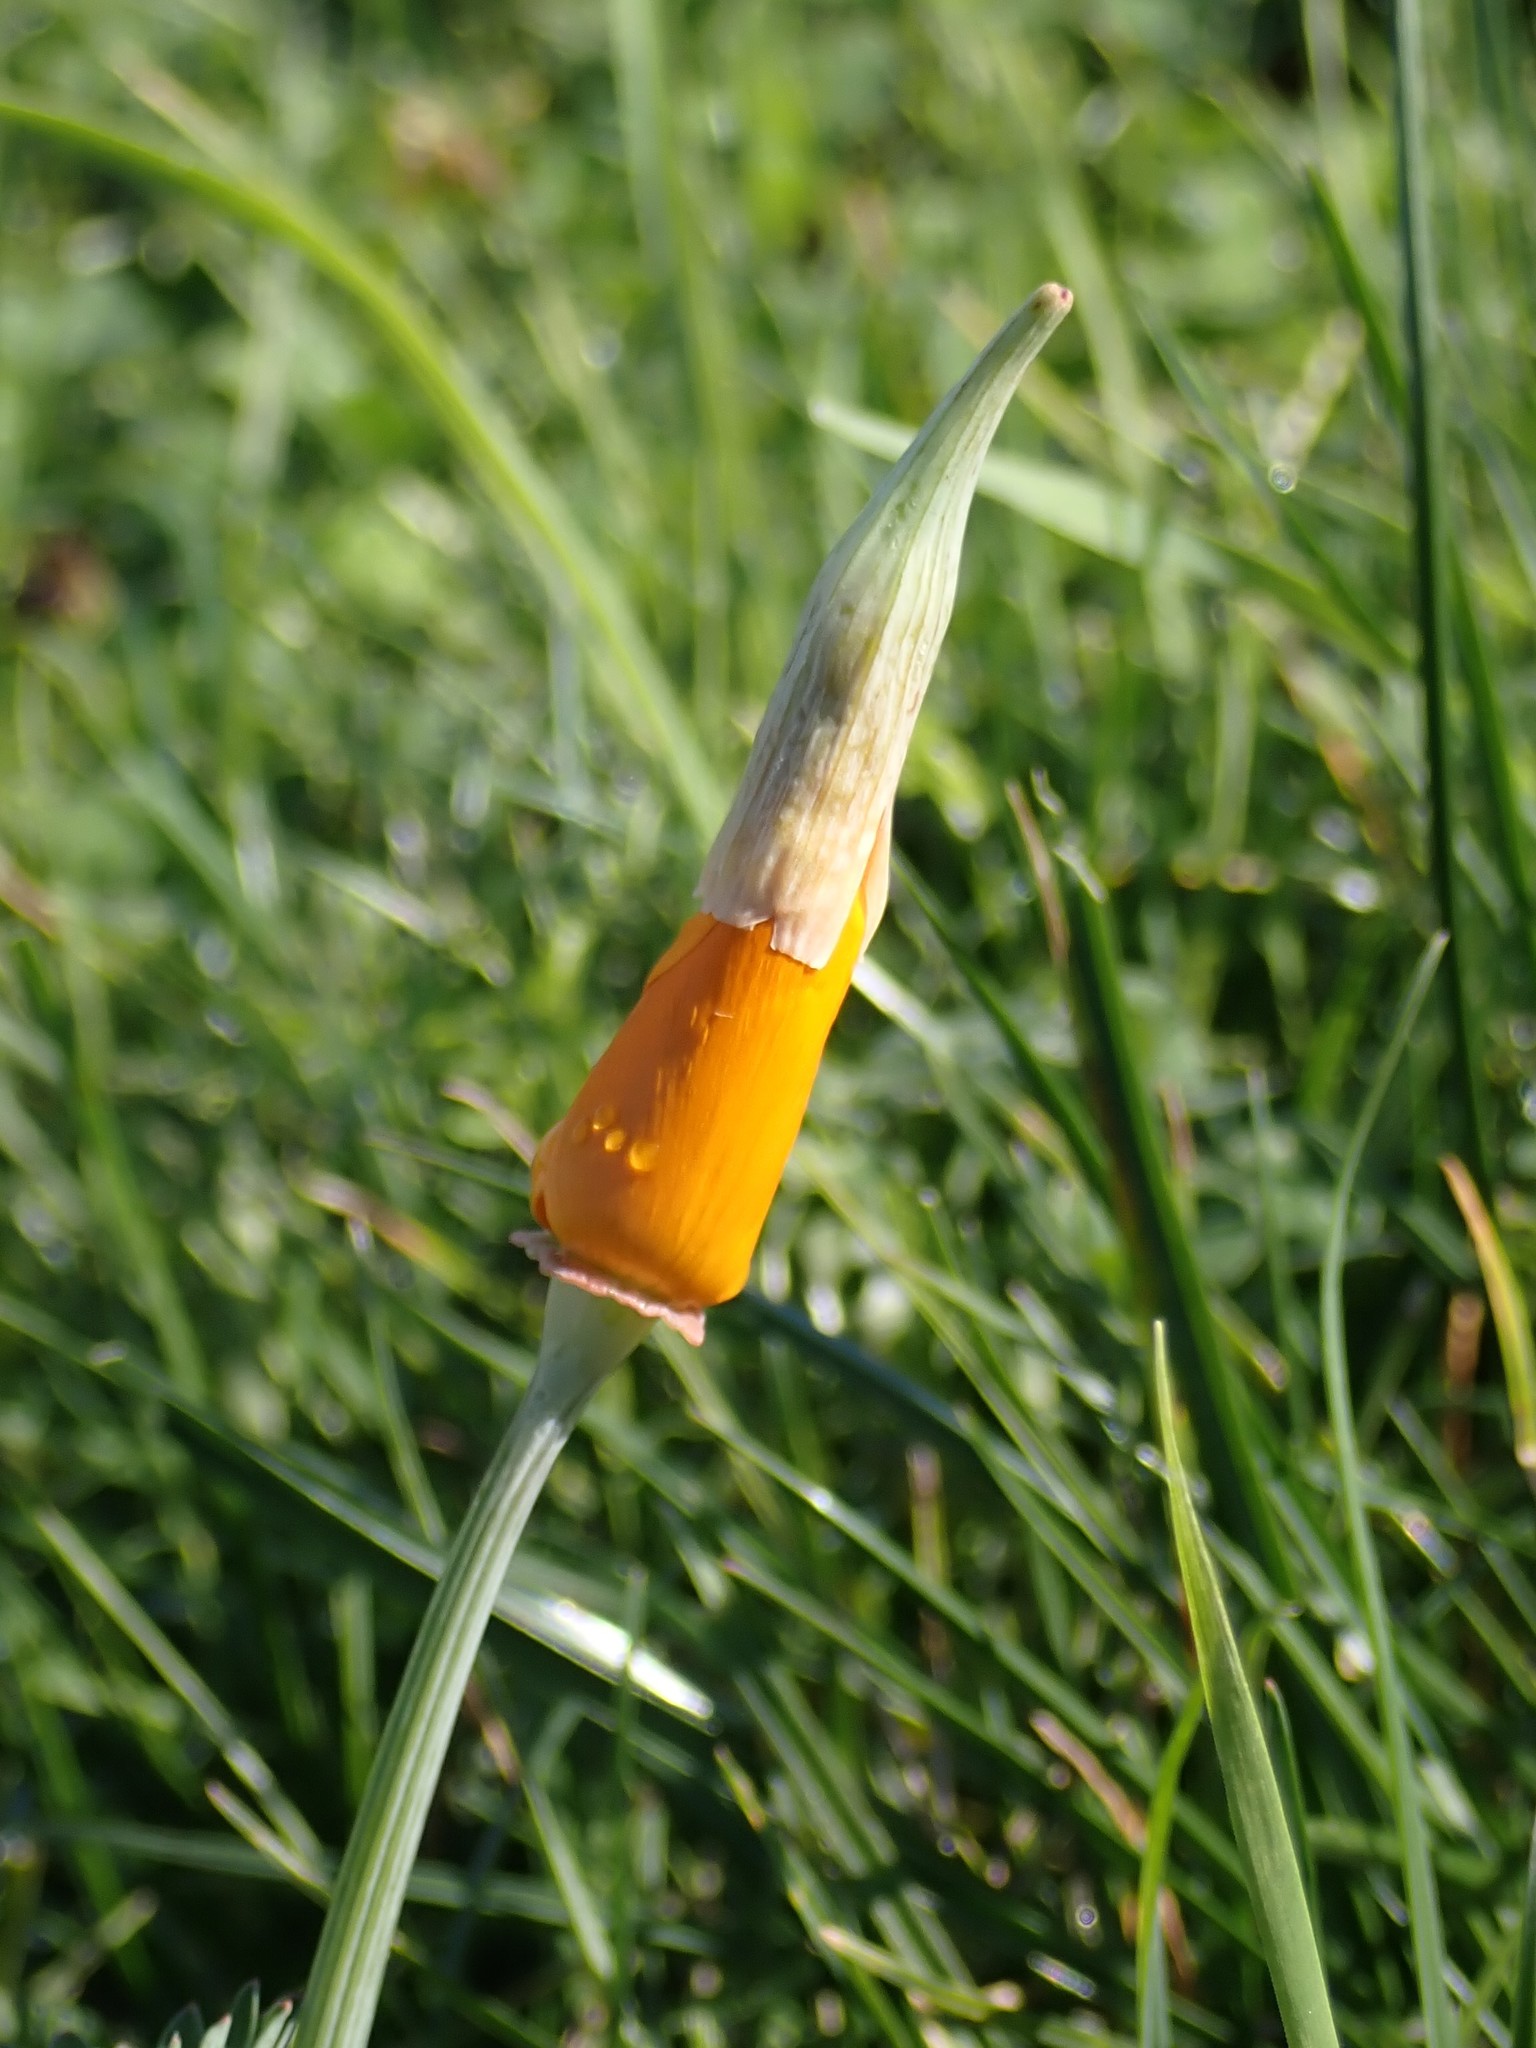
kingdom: Plantae
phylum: Tracheophyta
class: Magnoliopsida
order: Ranunculales
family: Papaveraceae
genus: Eschscholzia
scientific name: Eschscholzia californica
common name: California poppy
